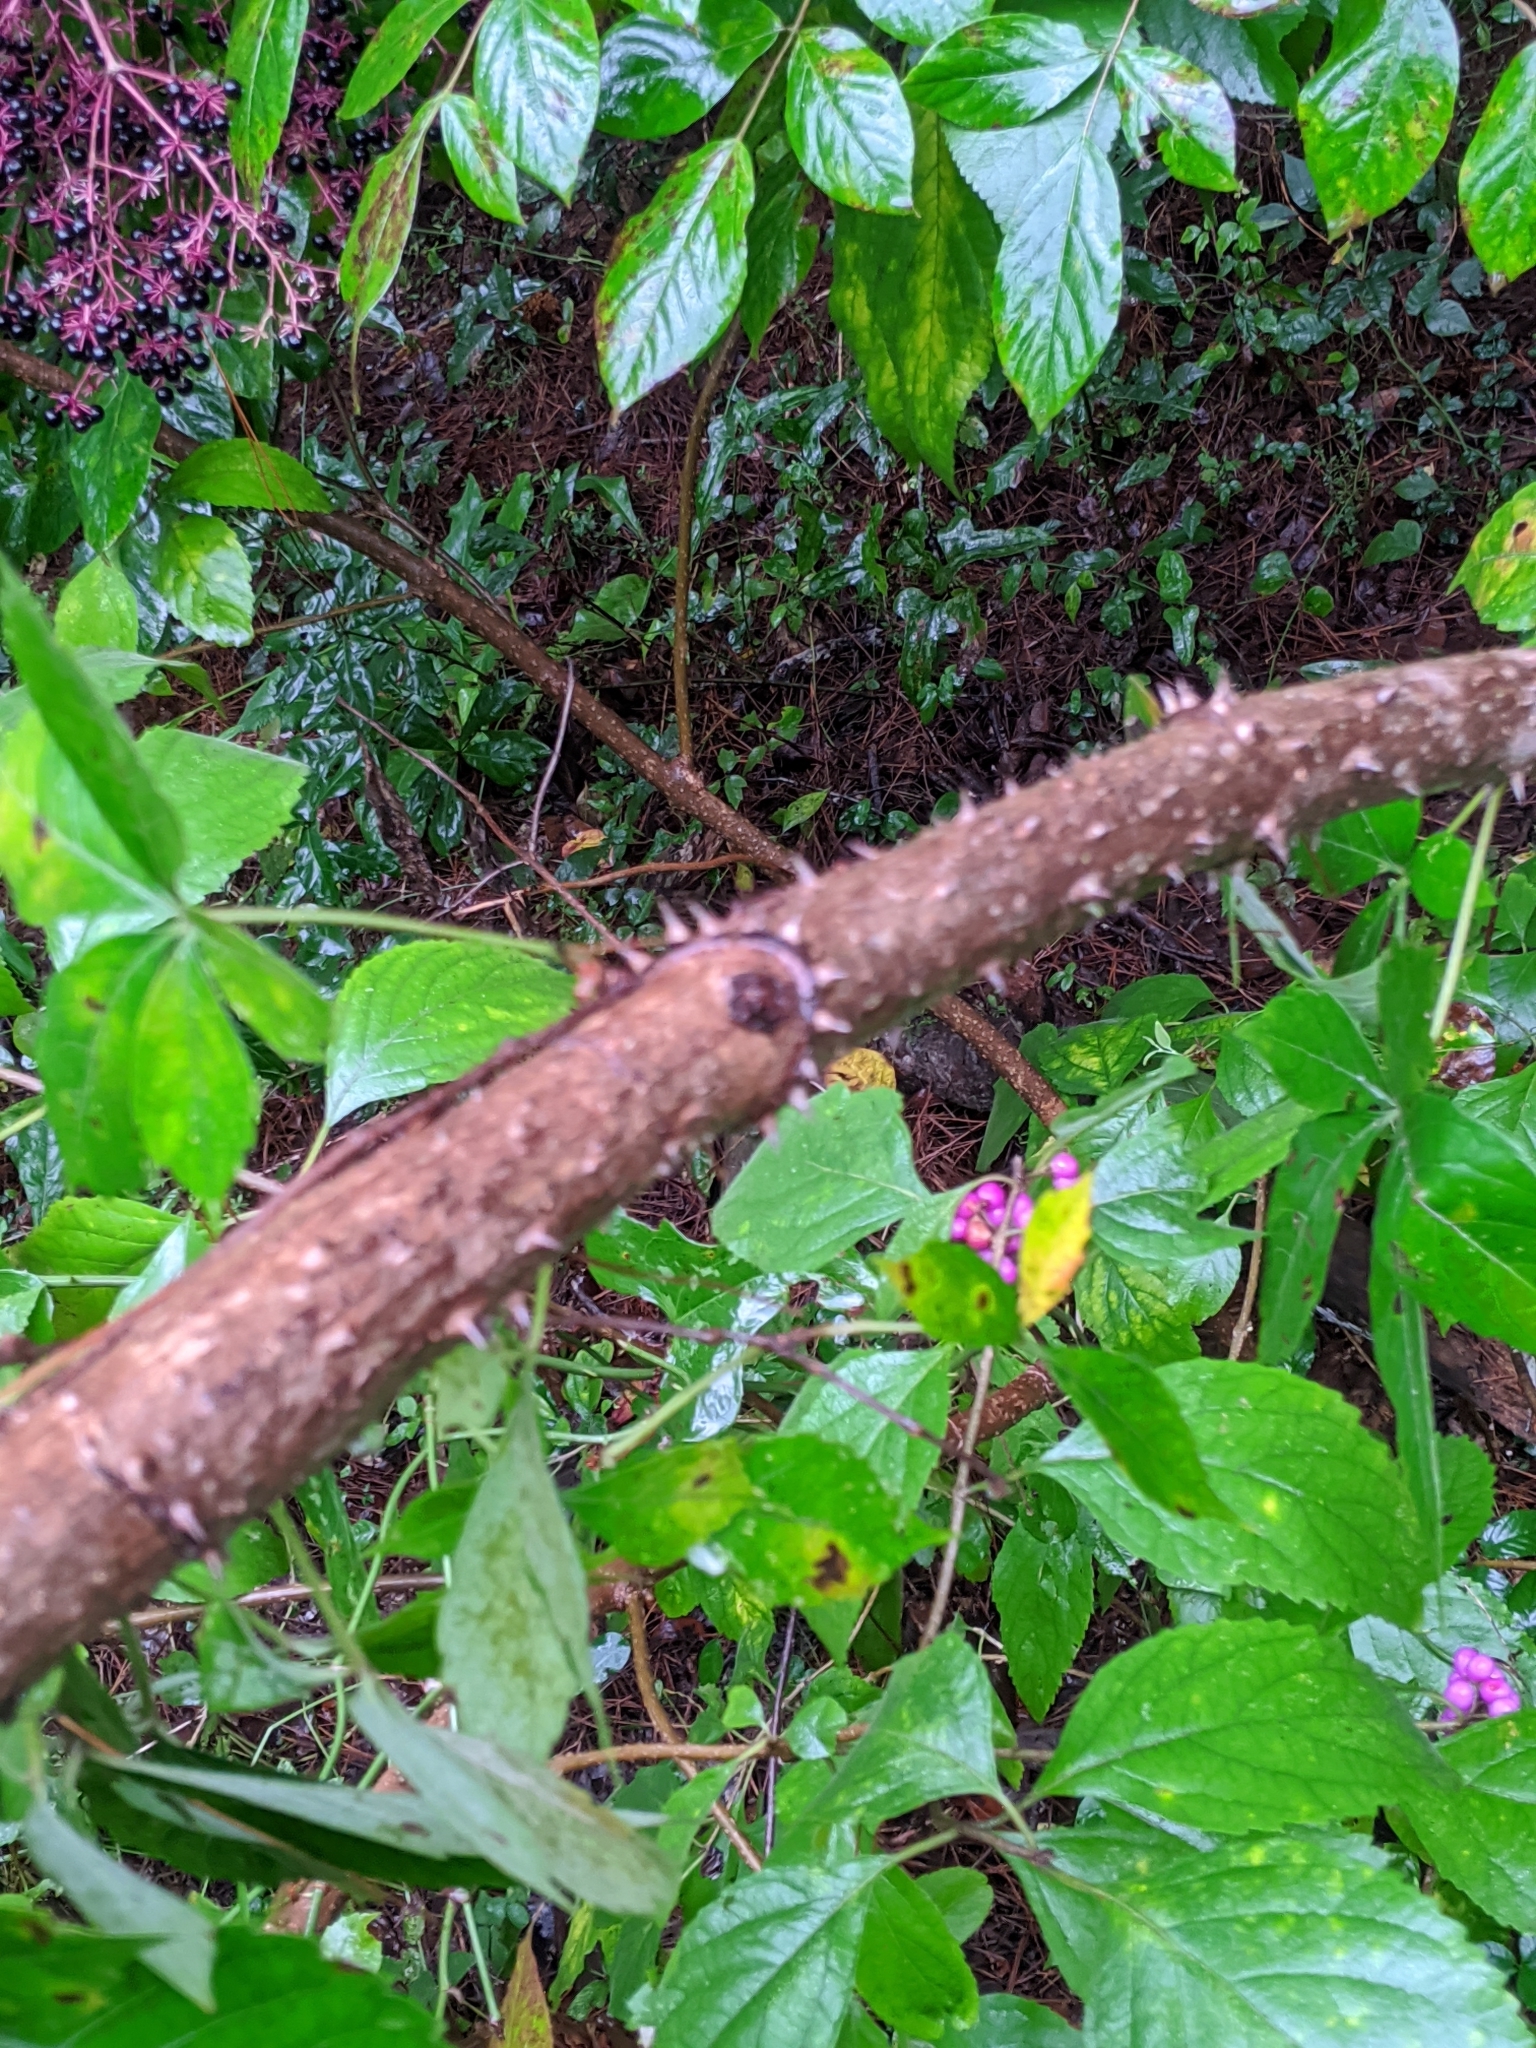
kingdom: Plantae
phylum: Tracheophyta
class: Magnoliopsida
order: Apiales
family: Araliaceae
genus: Aralia
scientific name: Aralia spinosa
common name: Hercules'-club
